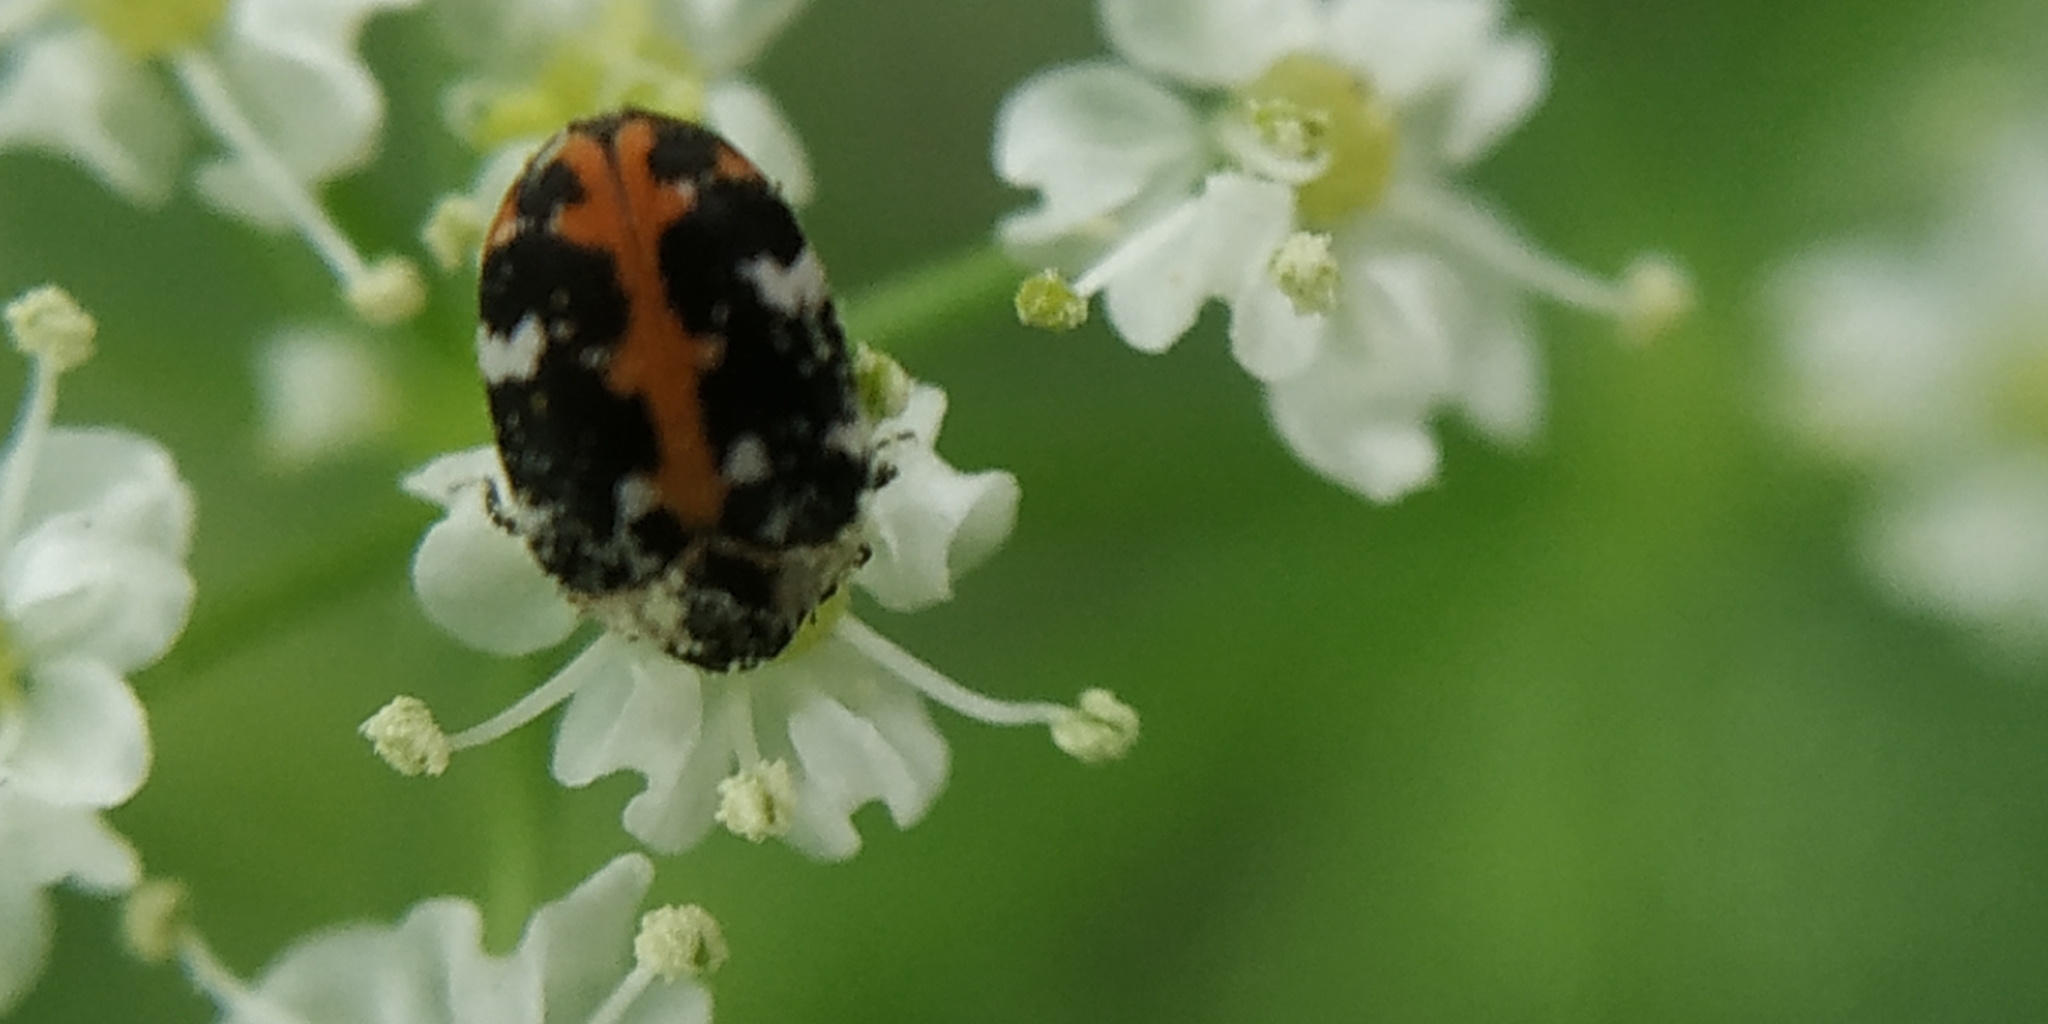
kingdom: Animalia
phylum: Arthropoda
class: Insecta
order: Coleoptera
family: Dermestidae
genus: Anthrenus
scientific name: Anthrenus scrophulariae
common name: Buffalo carpet beetle
